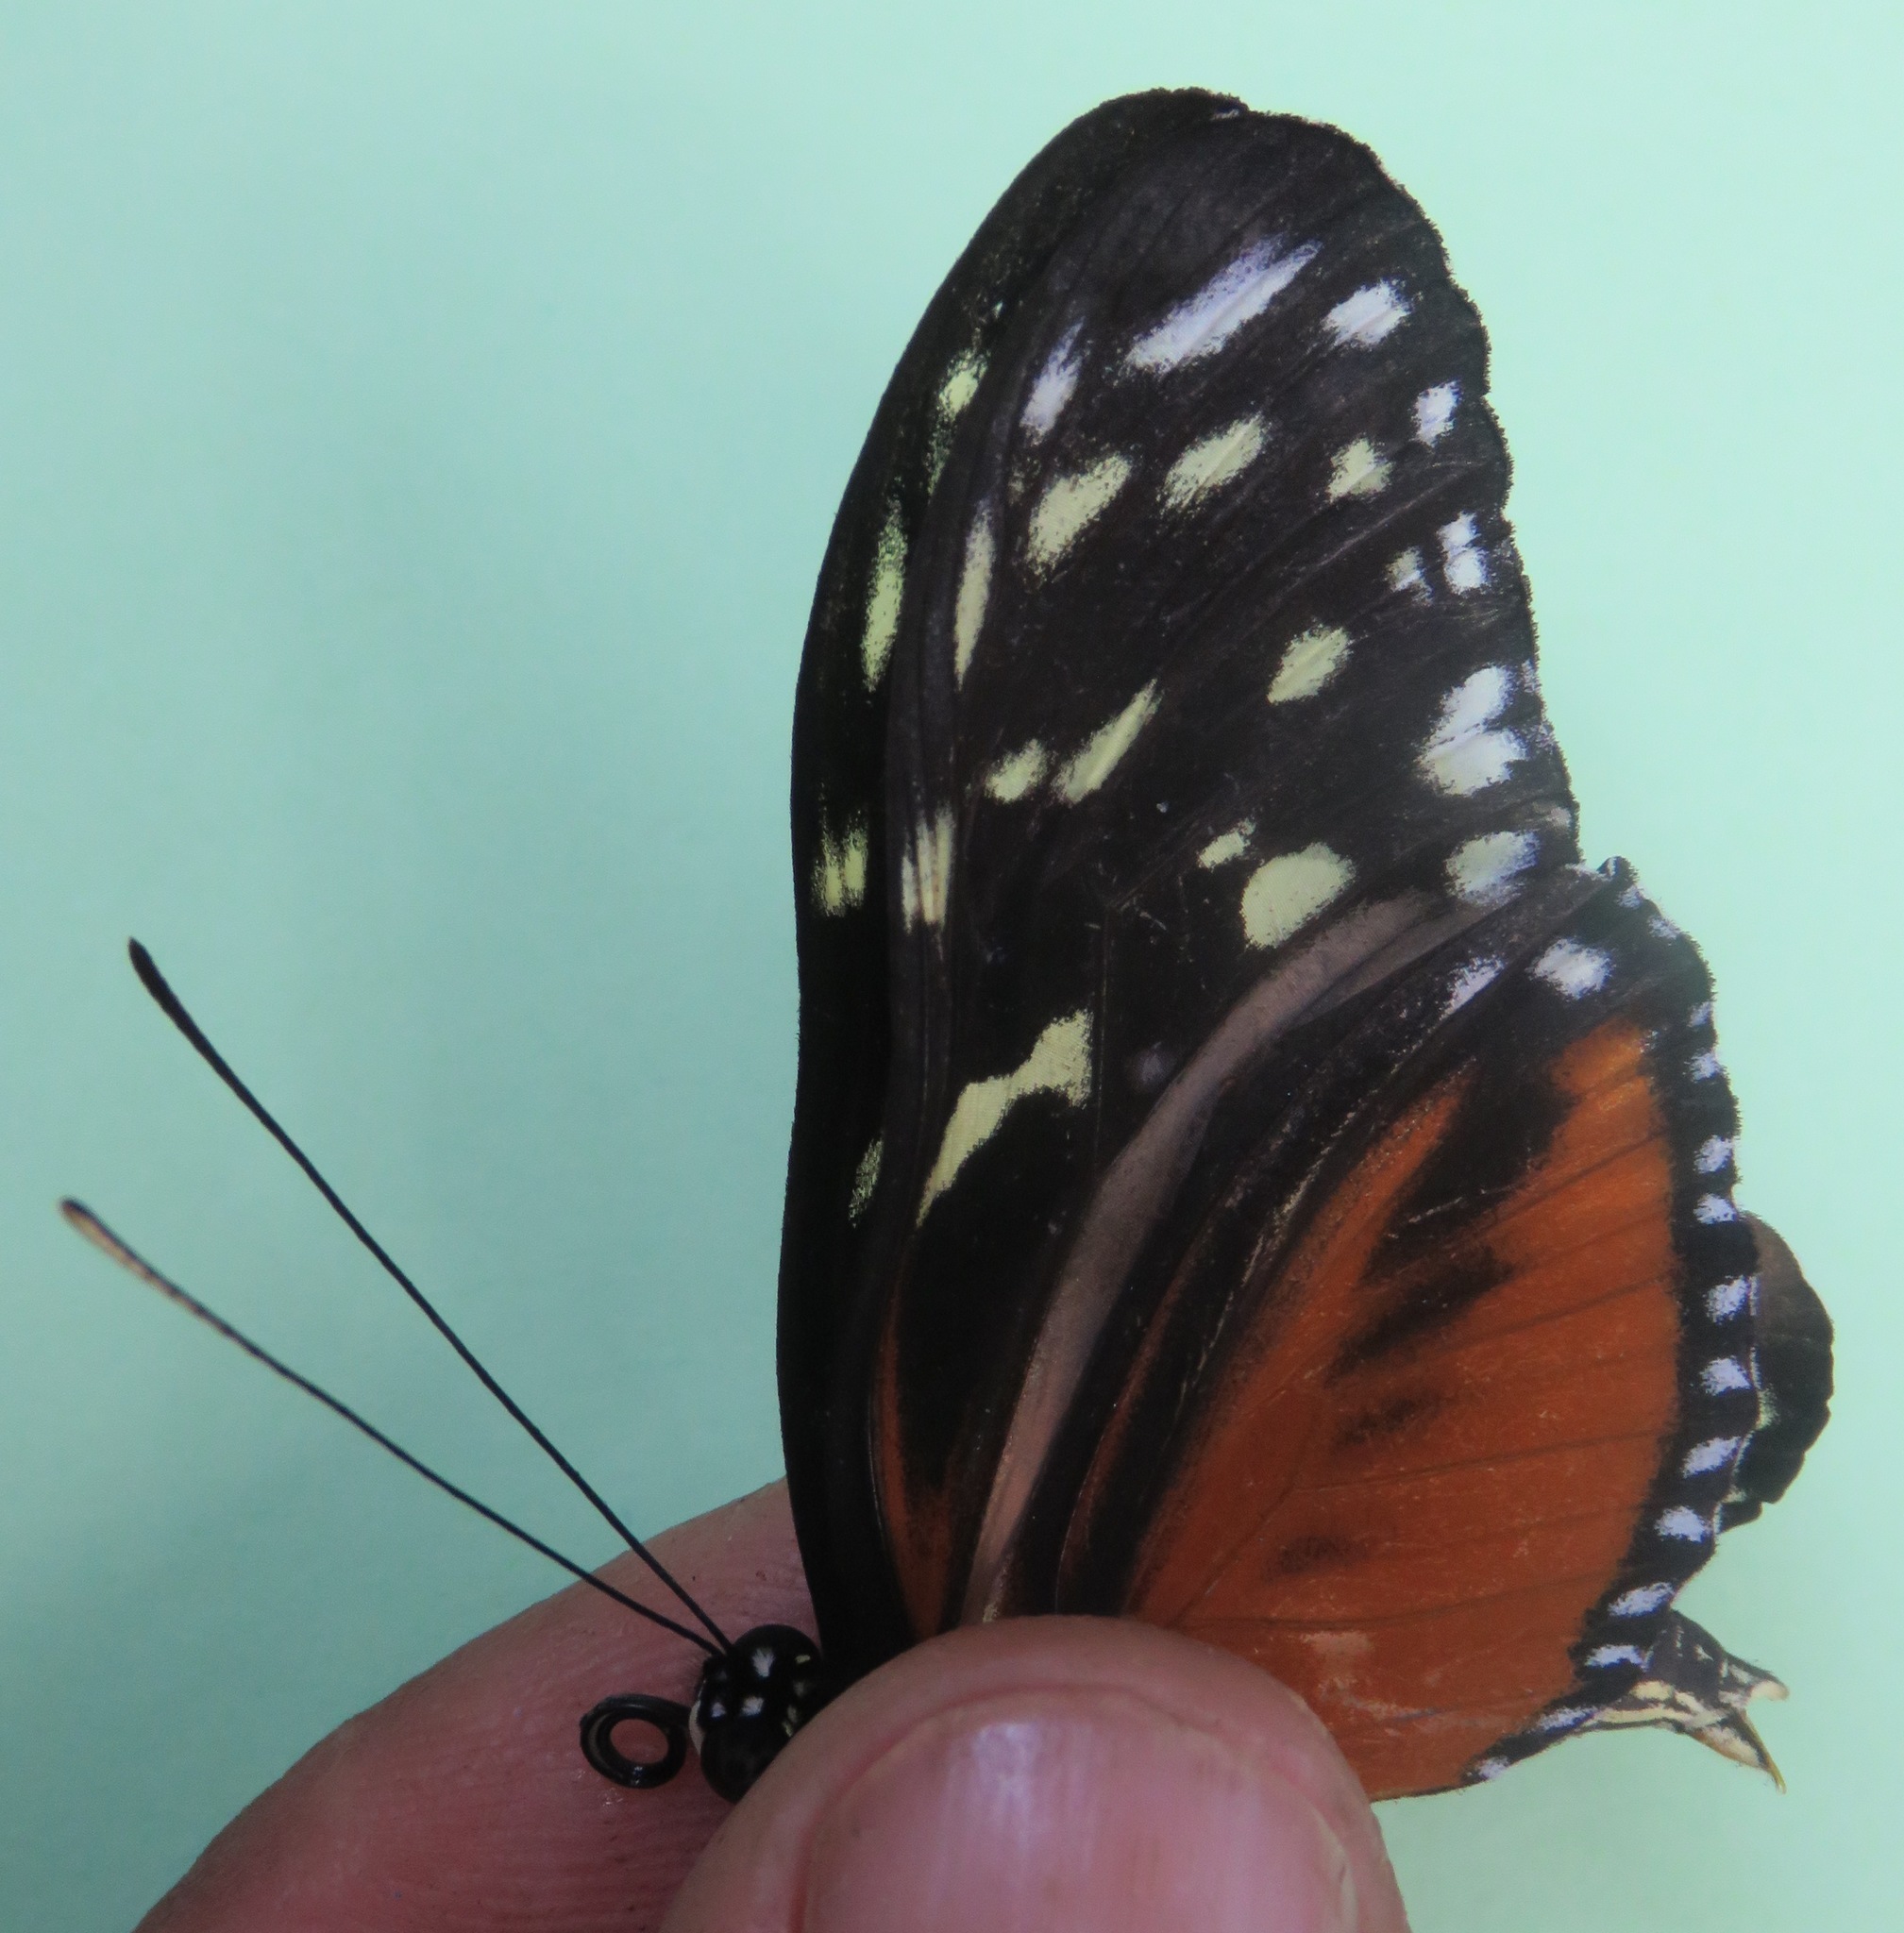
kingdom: Animalia
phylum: Arthropoda
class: Insecta
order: Lepidoptera
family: Nymphalidae
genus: Heliconius
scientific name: Heliconius hecale
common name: Tiger longwing
